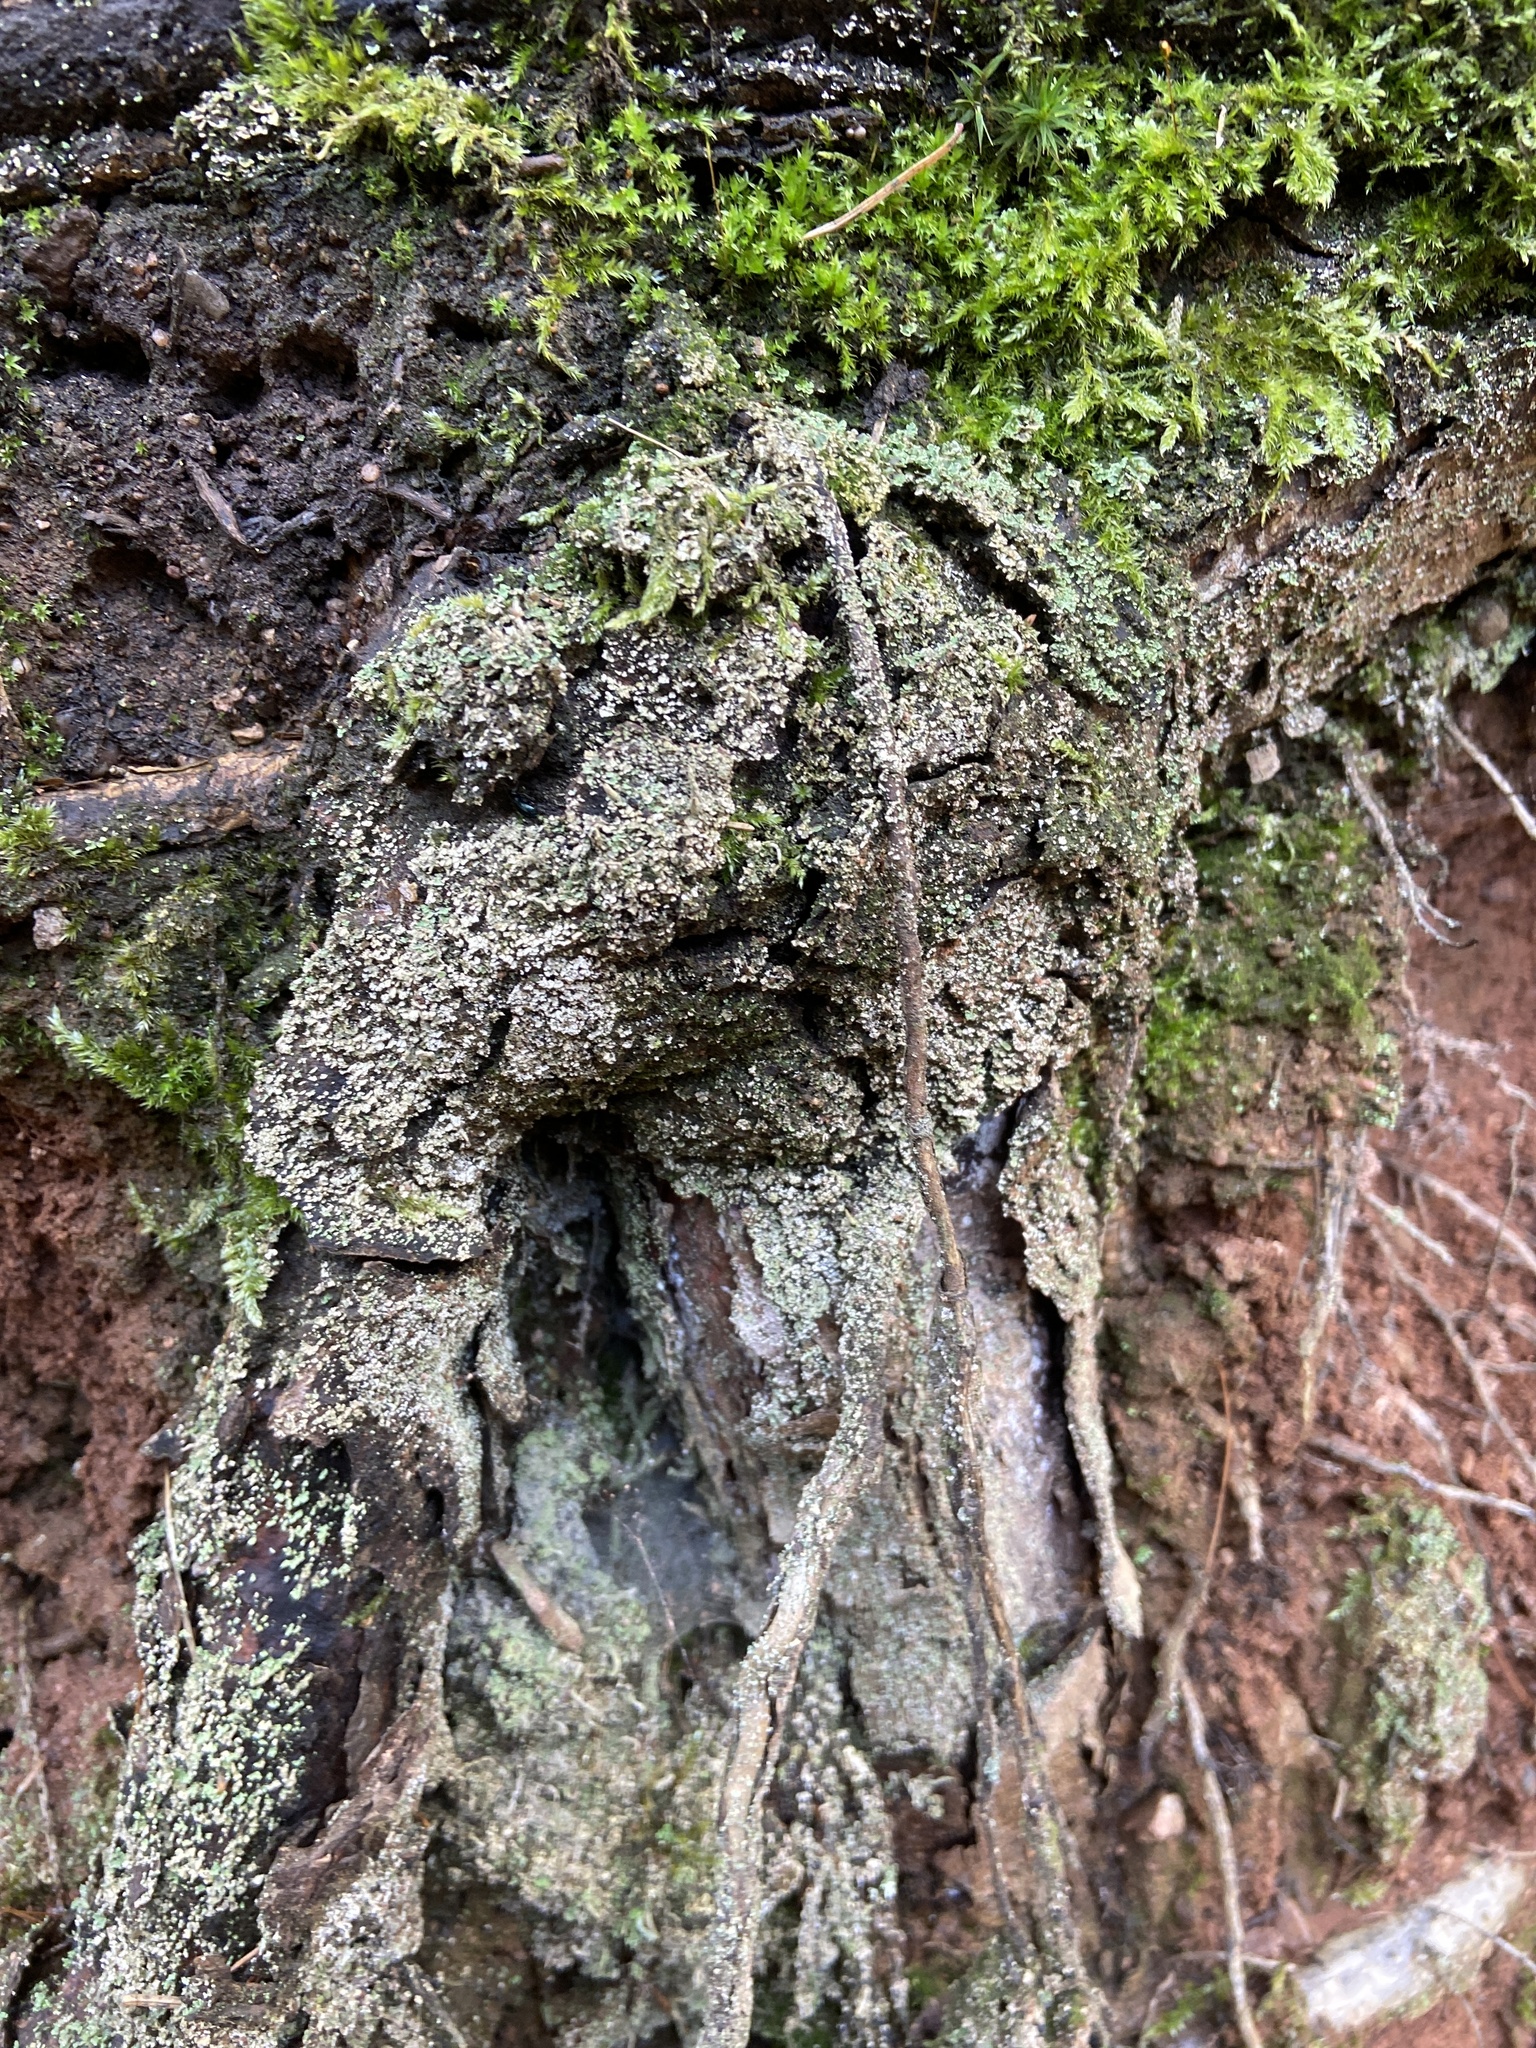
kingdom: Fungi
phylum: Ascomycota
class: Lecanoromycetes
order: Lecanorales
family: Cladoniaceae
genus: Cladonia
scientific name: Cladonia
